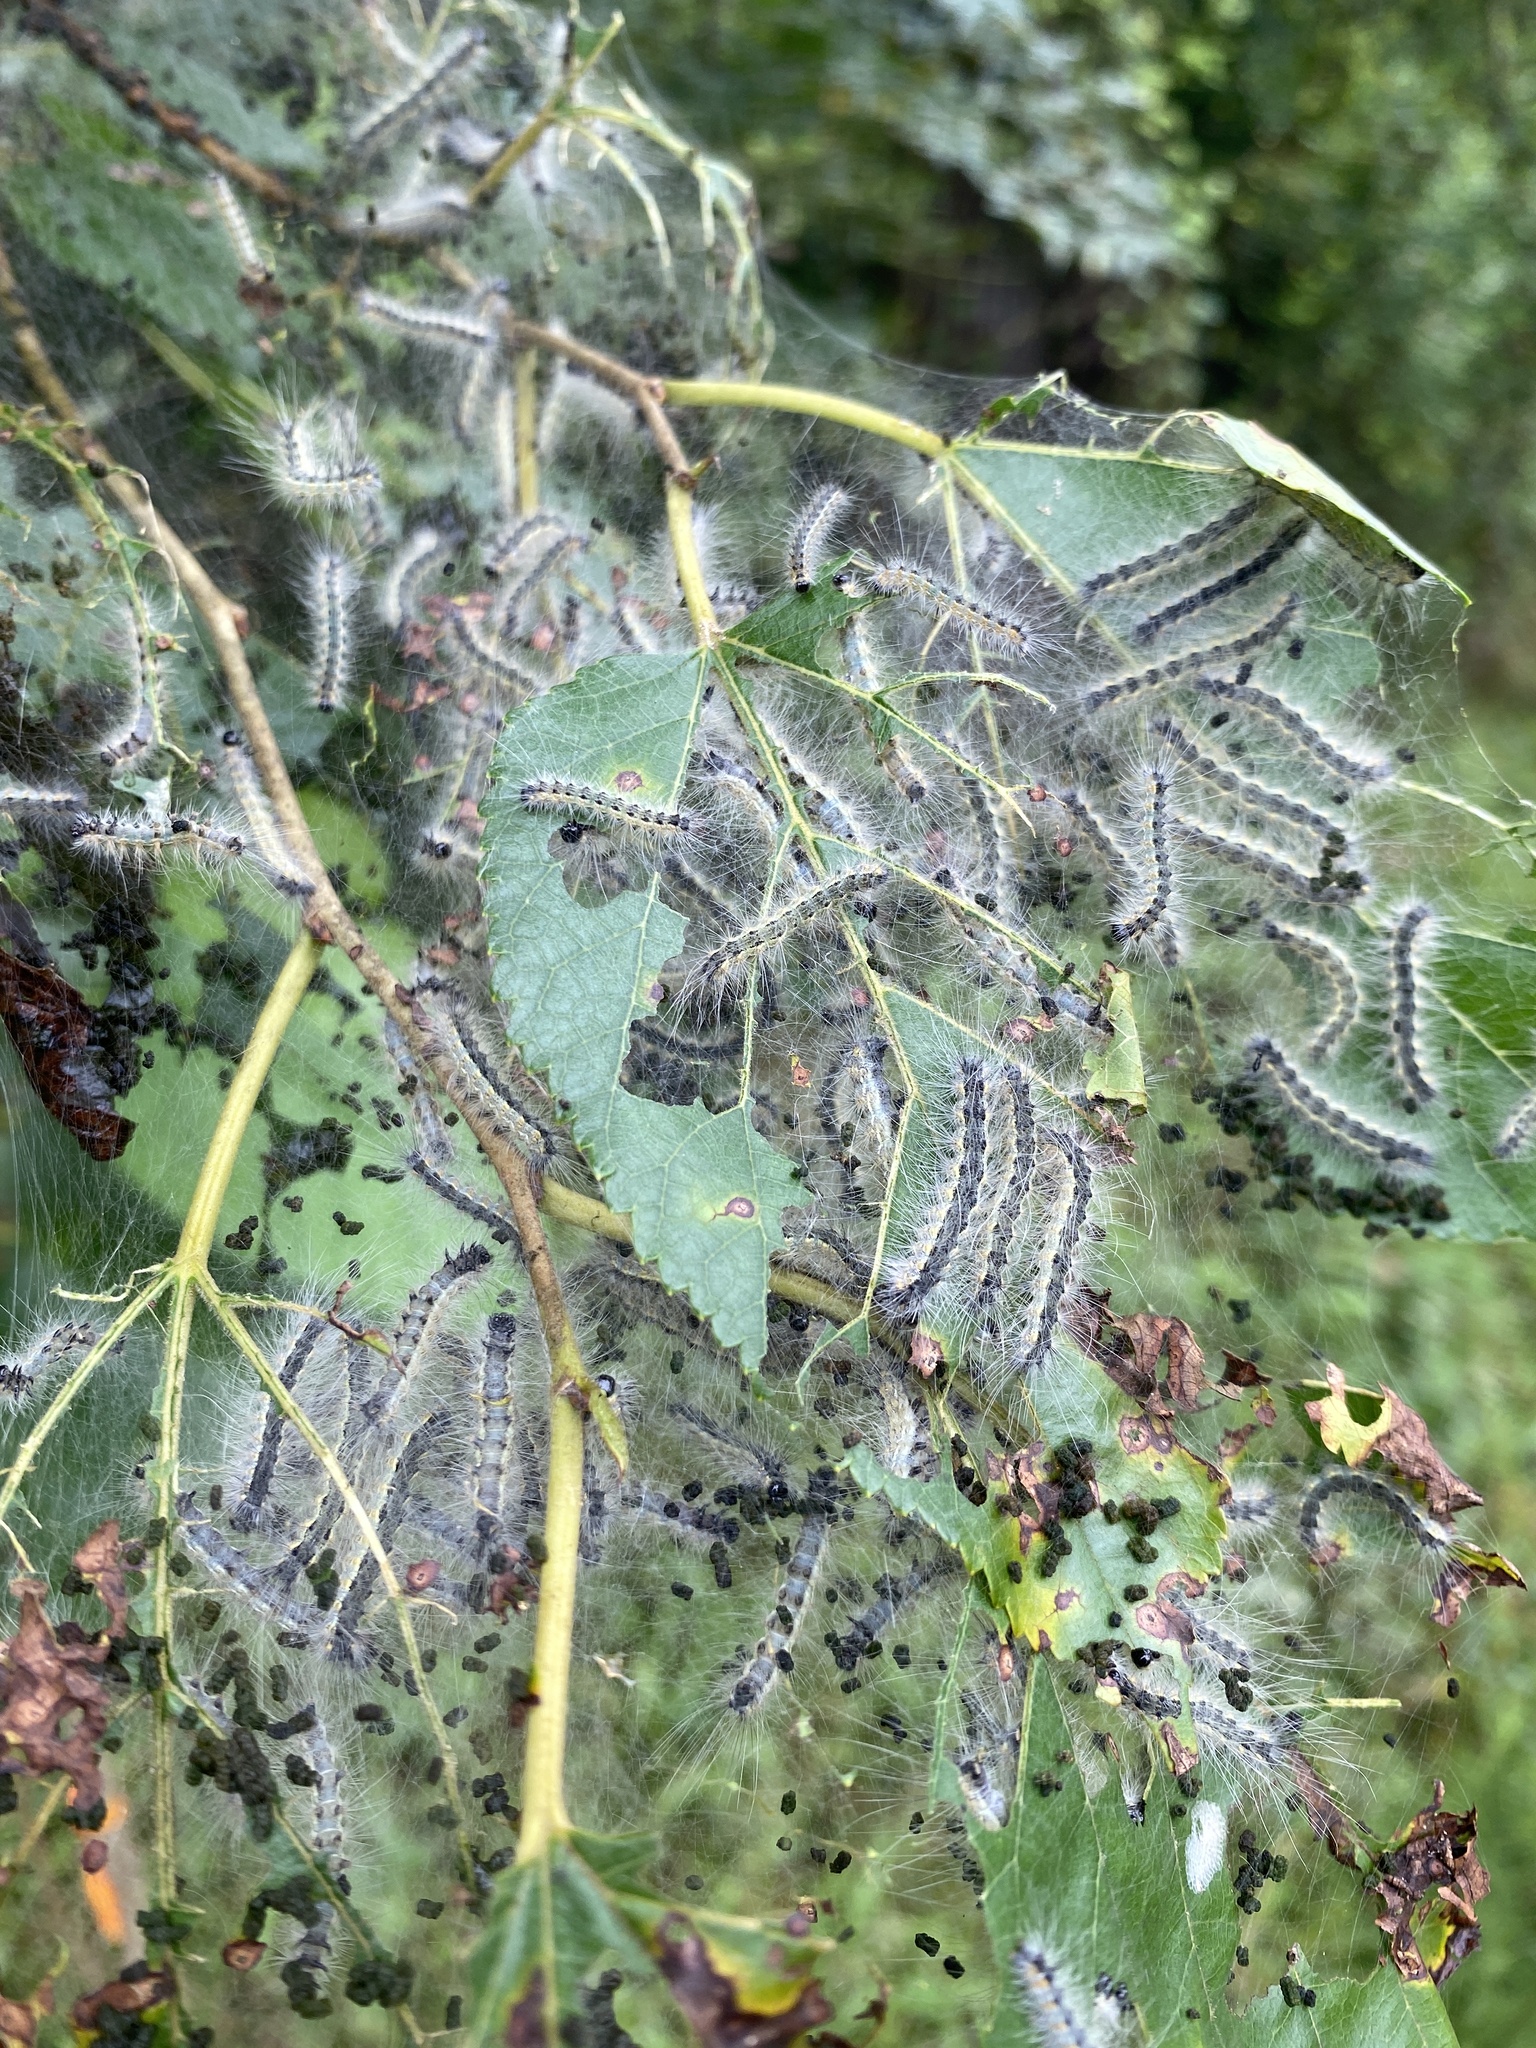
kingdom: Animalia
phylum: Arthropoda
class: Insecta
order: Lepidoptera
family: Erebidae
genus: Hyphantria
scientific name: Hyphantria cunea
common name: American white moth
